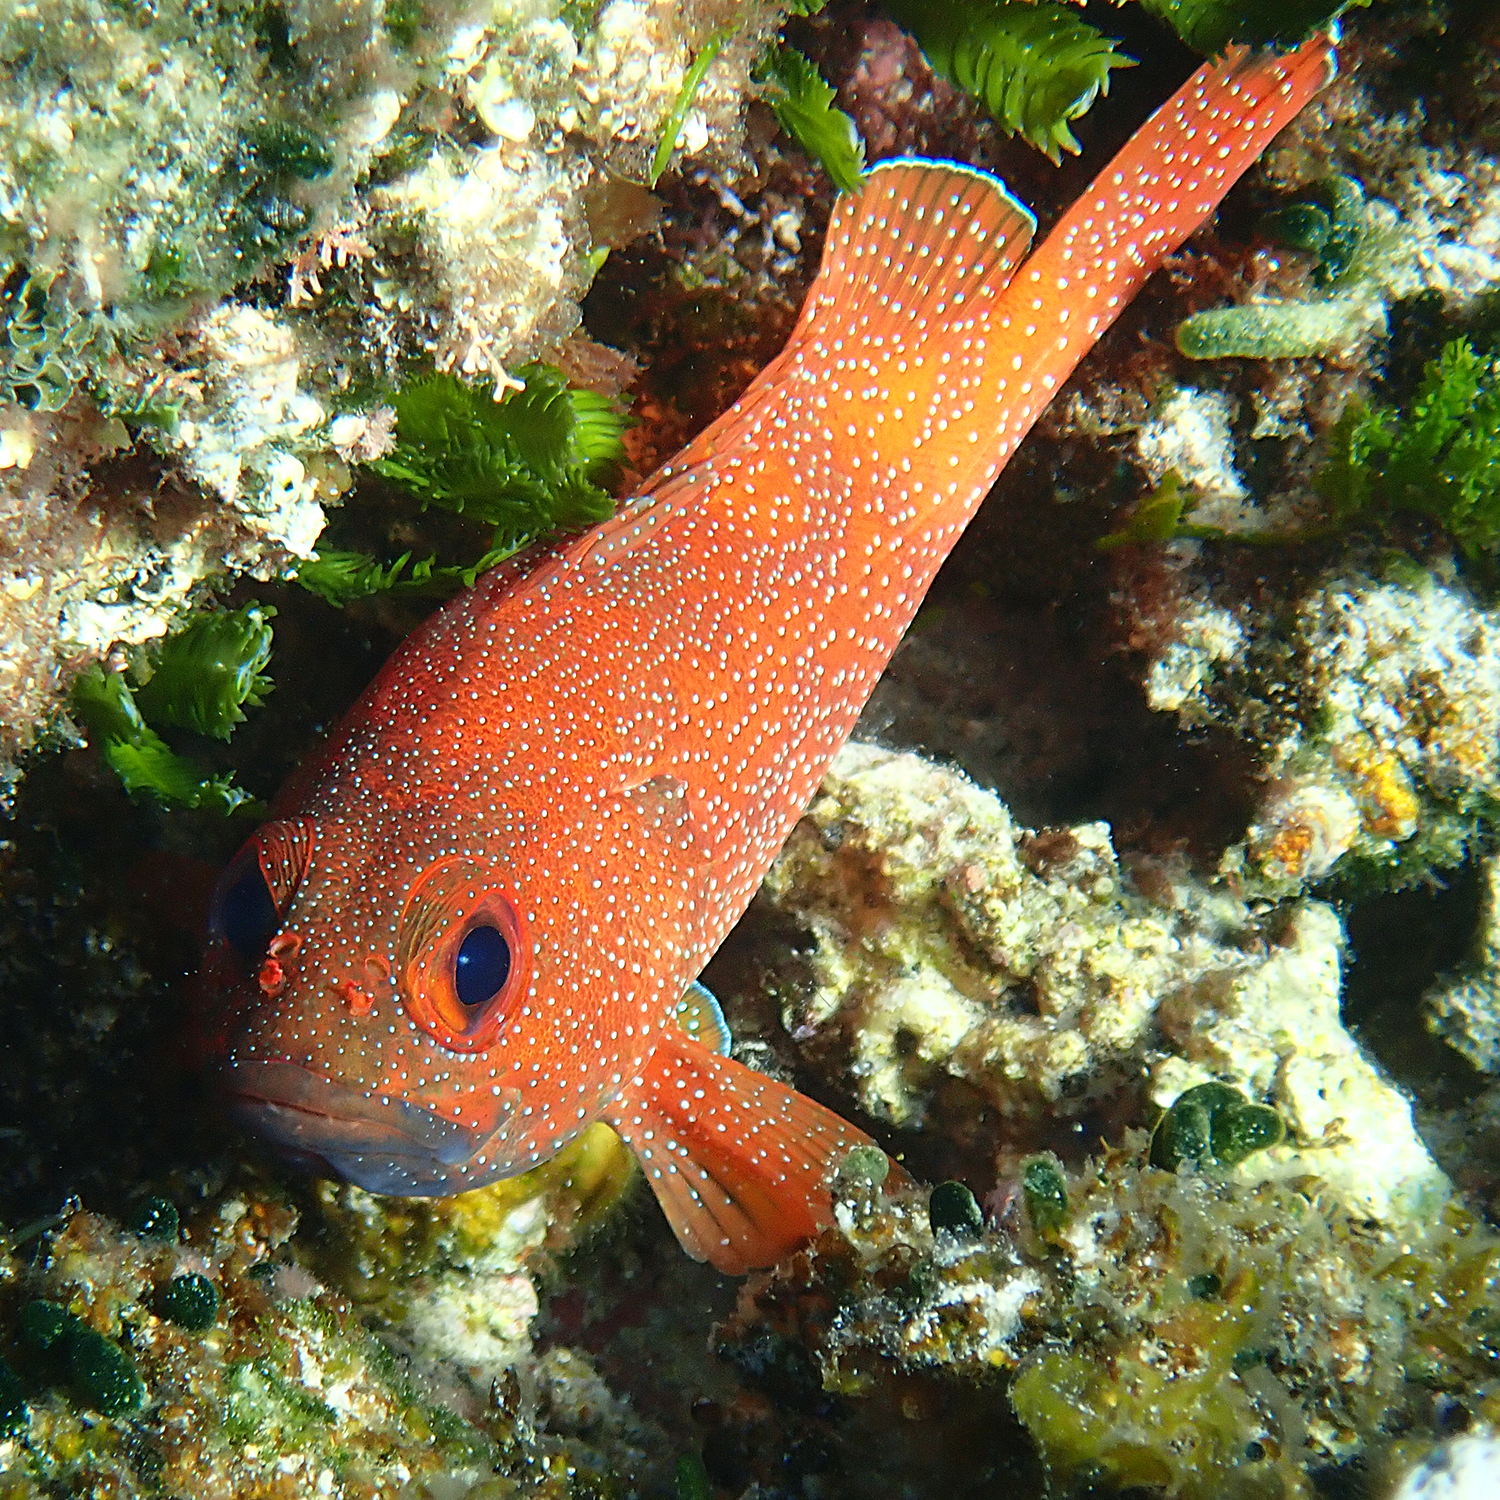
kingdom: Animalia
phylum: Chordata
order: Perciformes
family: Serranidae
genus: Trachypoma
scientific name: Trachypoma macracanthus
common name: Toadstool grouper
